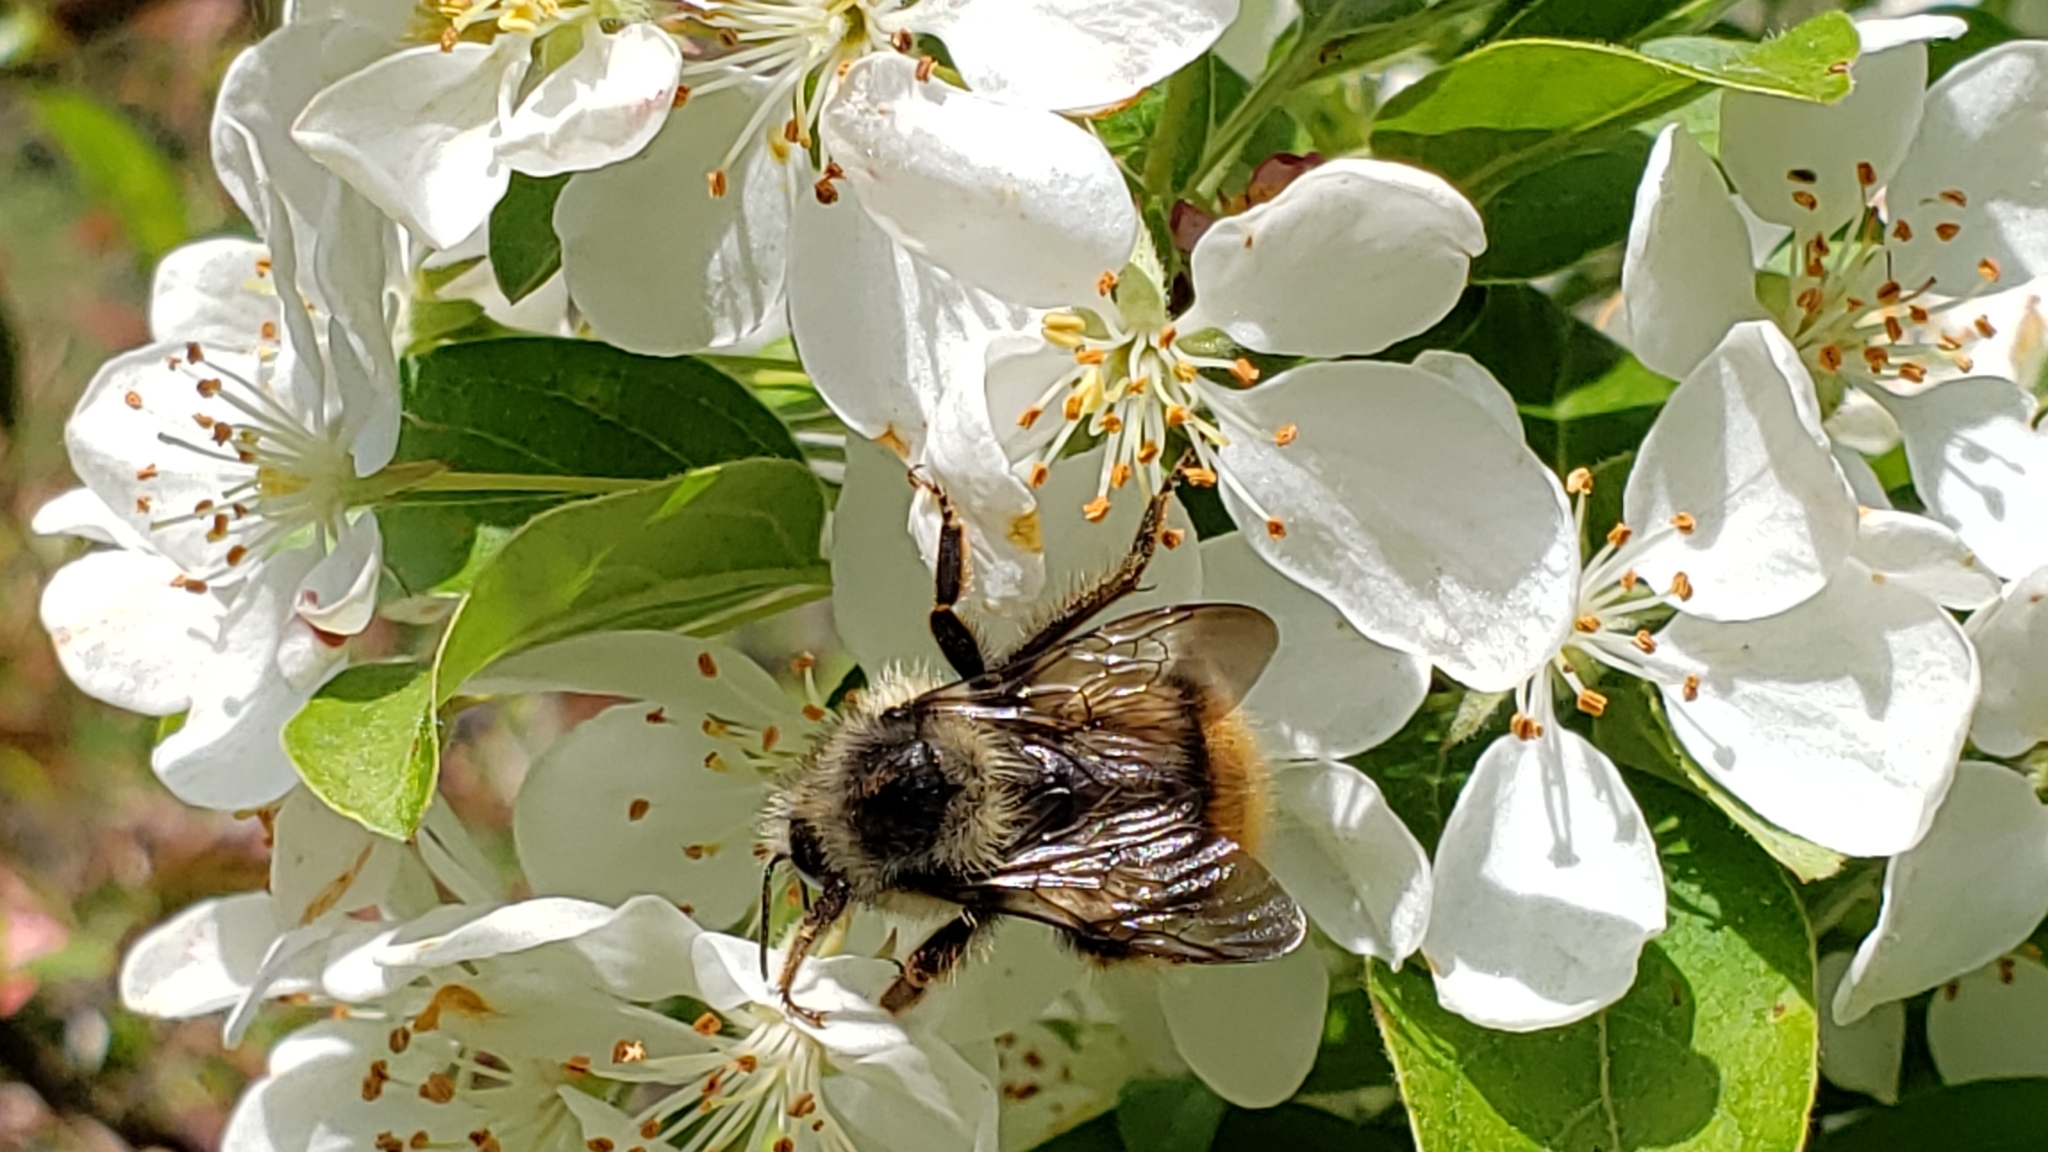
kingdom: Animalia
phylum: Arthropoda
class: Insecta
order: Hymenoptera
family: Apidae
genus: Bombus
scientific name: Bombus mixtus
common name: Fuzzy-horned bumble bee
